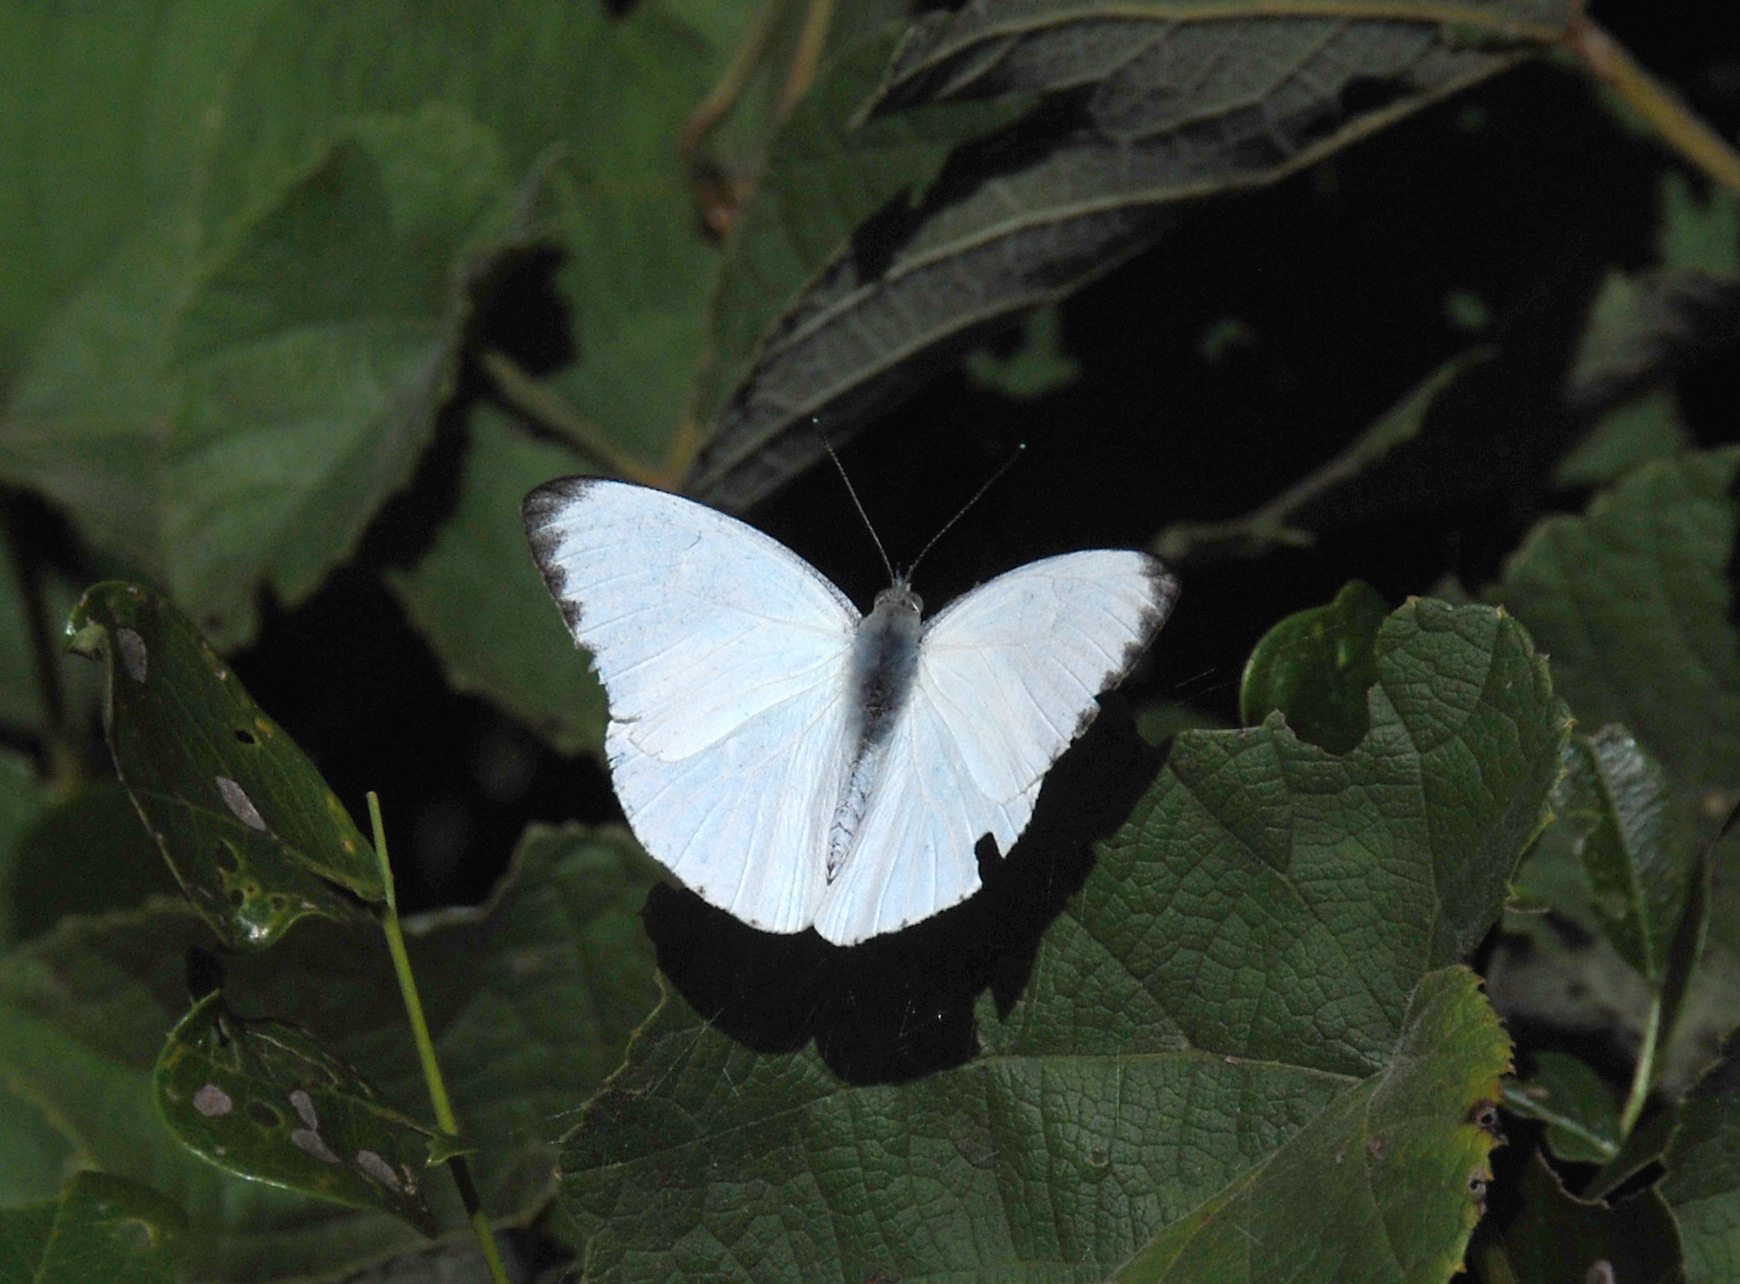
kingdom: Animalia
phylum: Arthropoda
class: Insecta
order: Lepidoptera
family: Pieridae
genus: Glutophrissa
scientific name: Glutophrissa epaphia
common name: African albatross
